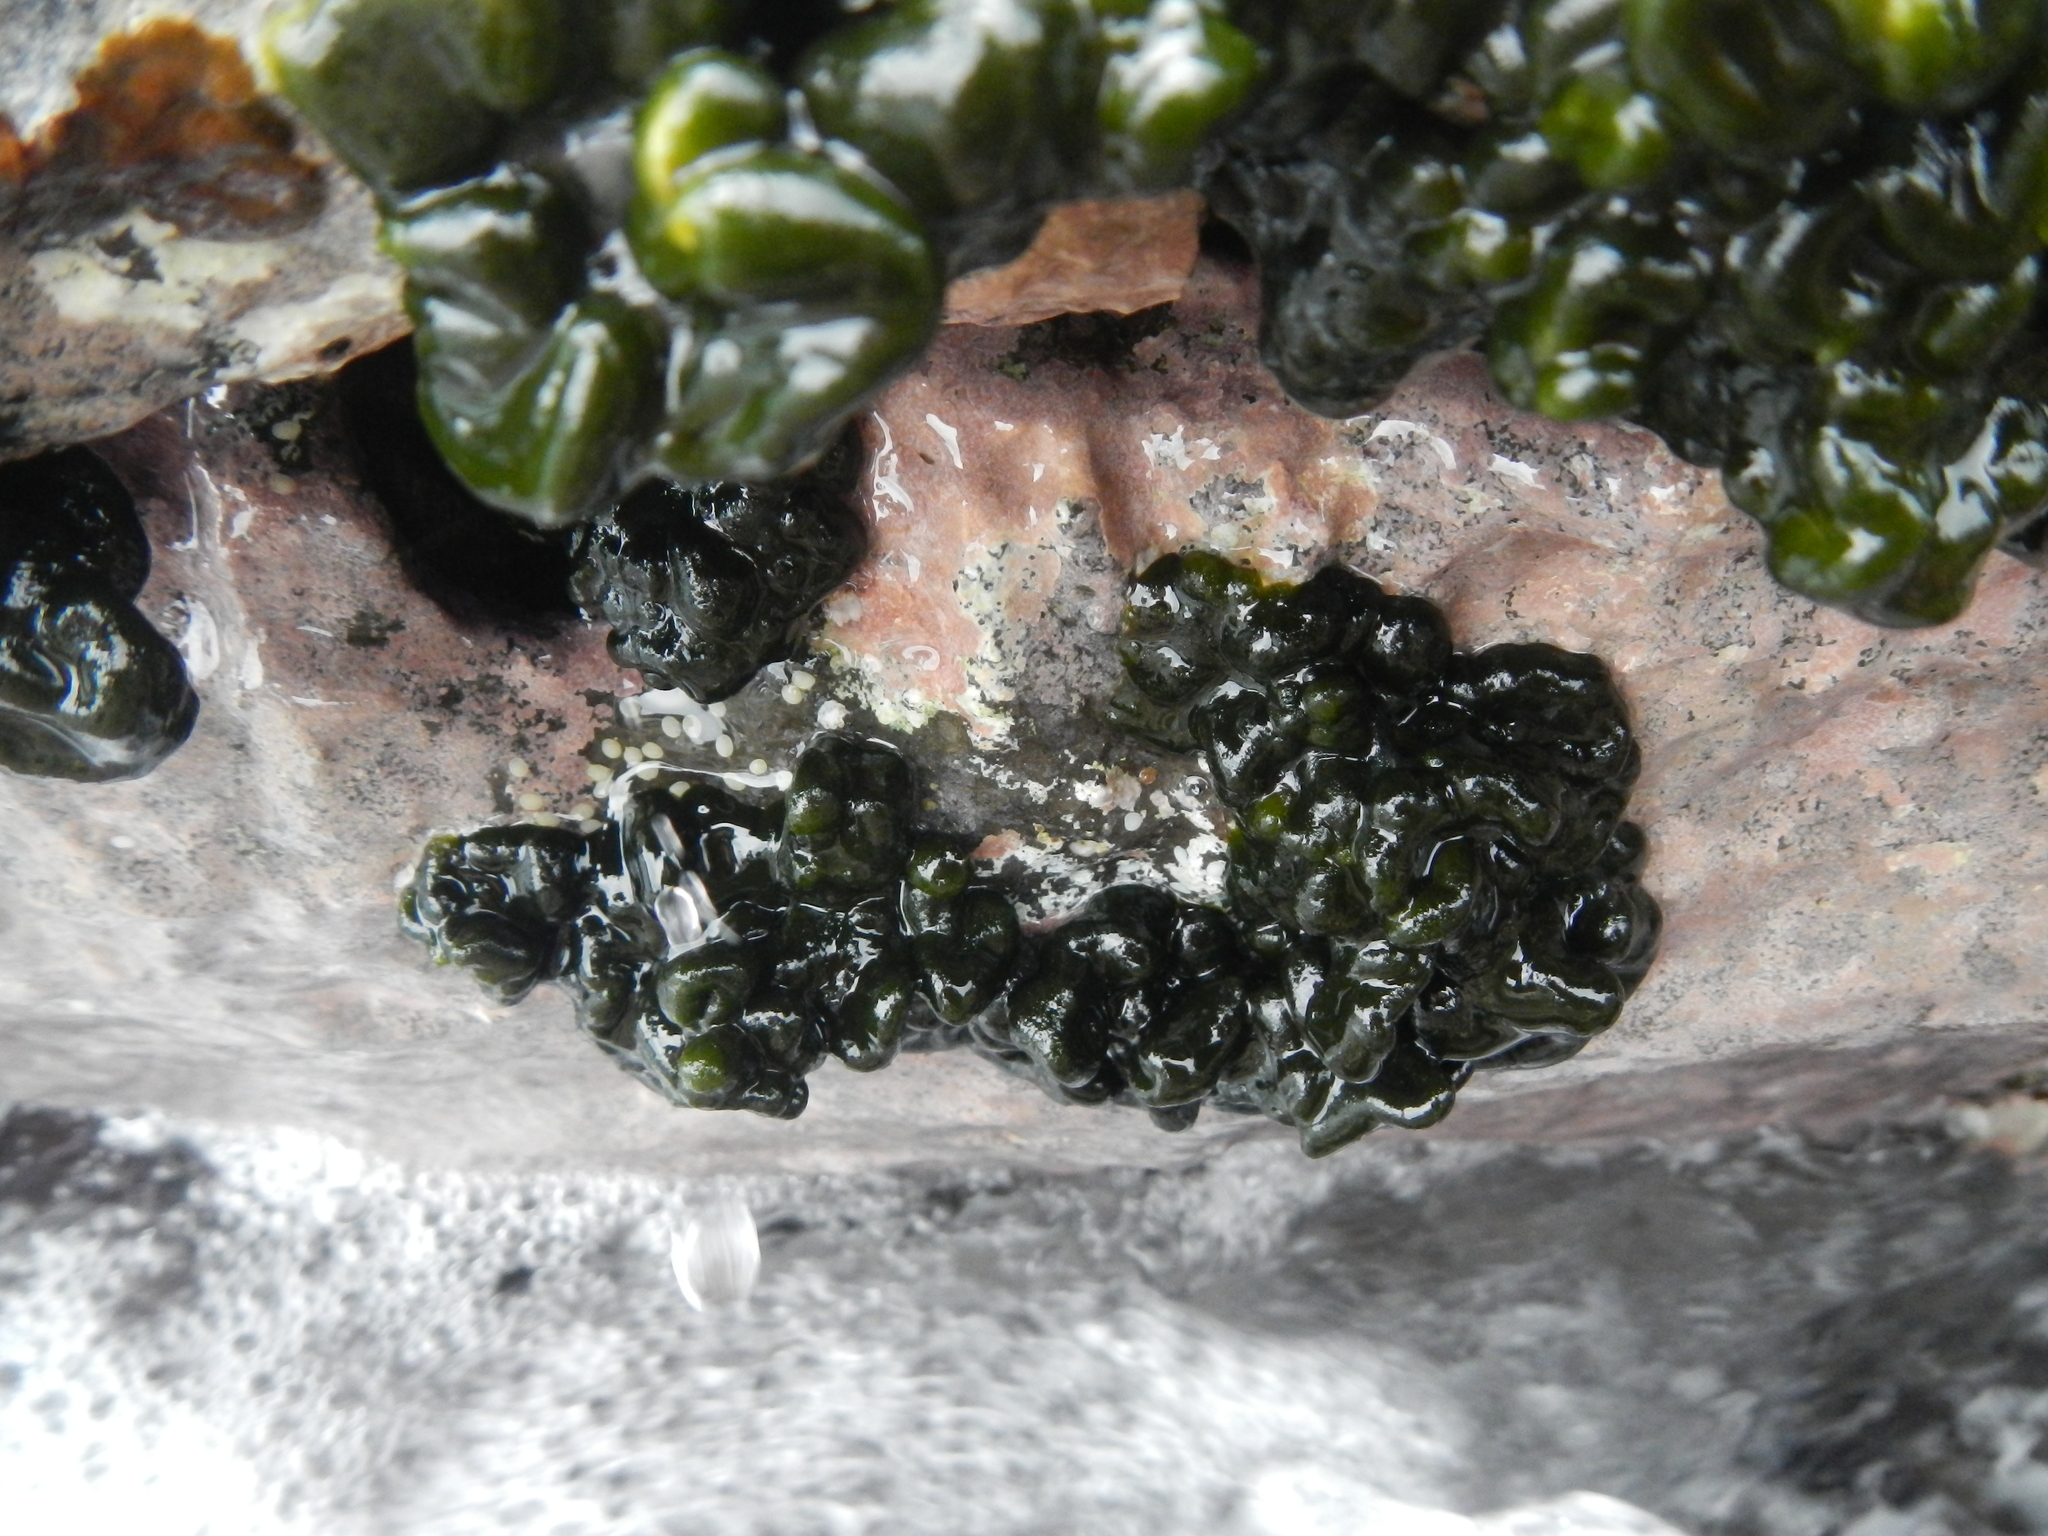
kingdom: Plantae
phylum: Chlorophyta
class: Ulvophyceae
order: Bryopsidales
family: Codiaceae
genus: Codium
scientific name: Codium spongiosum
